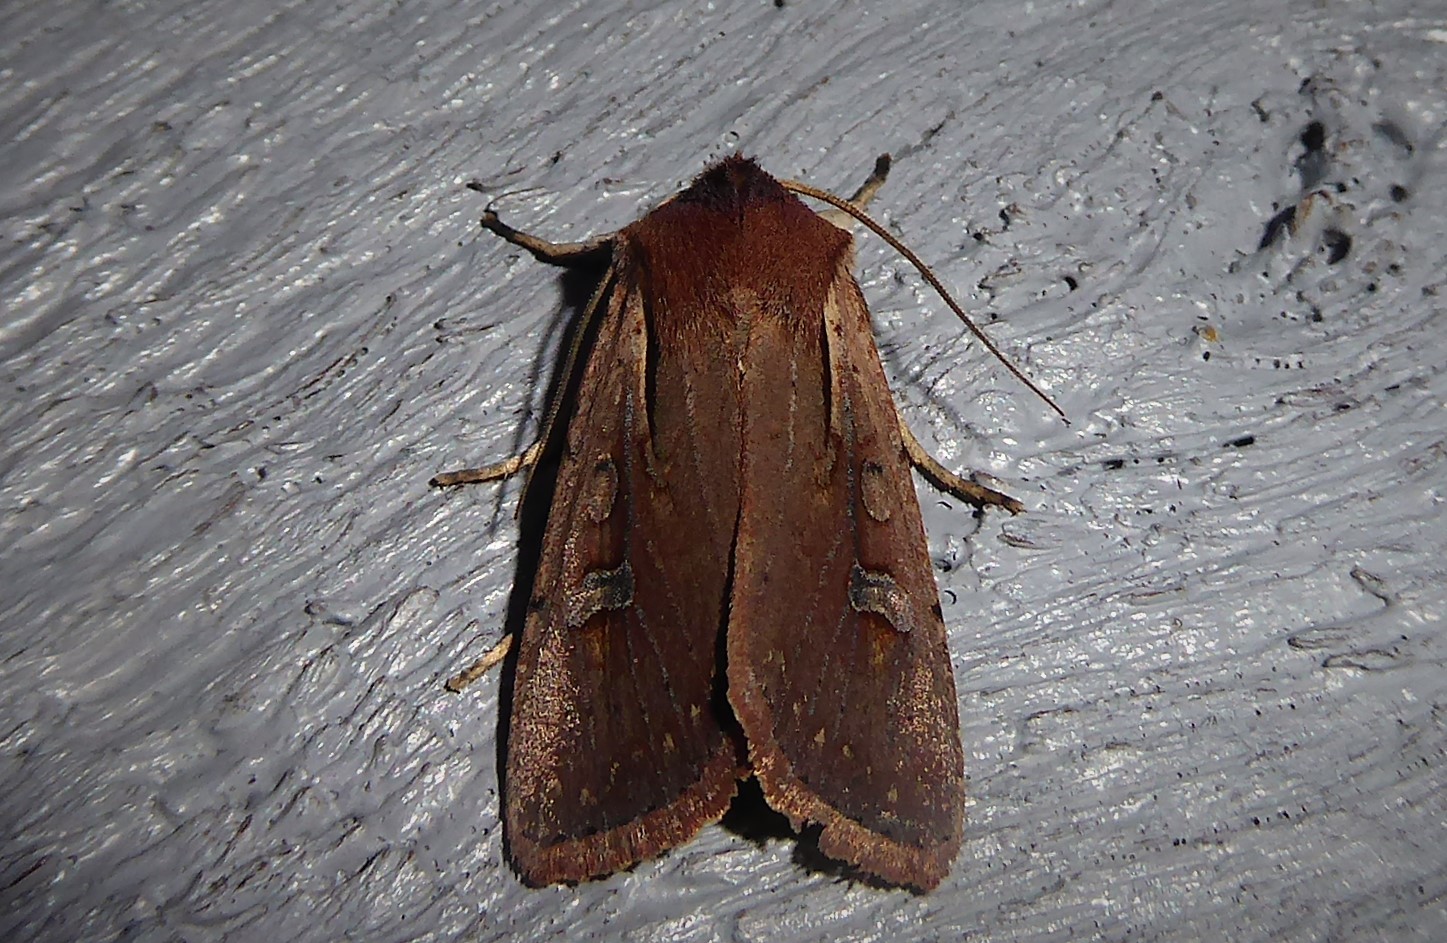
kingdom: Animalia
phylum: Arthropoda
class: Insecta
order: Lepidoptera
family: Noctuidae
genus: Ichneutica
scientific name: Ichneutica atristriga
